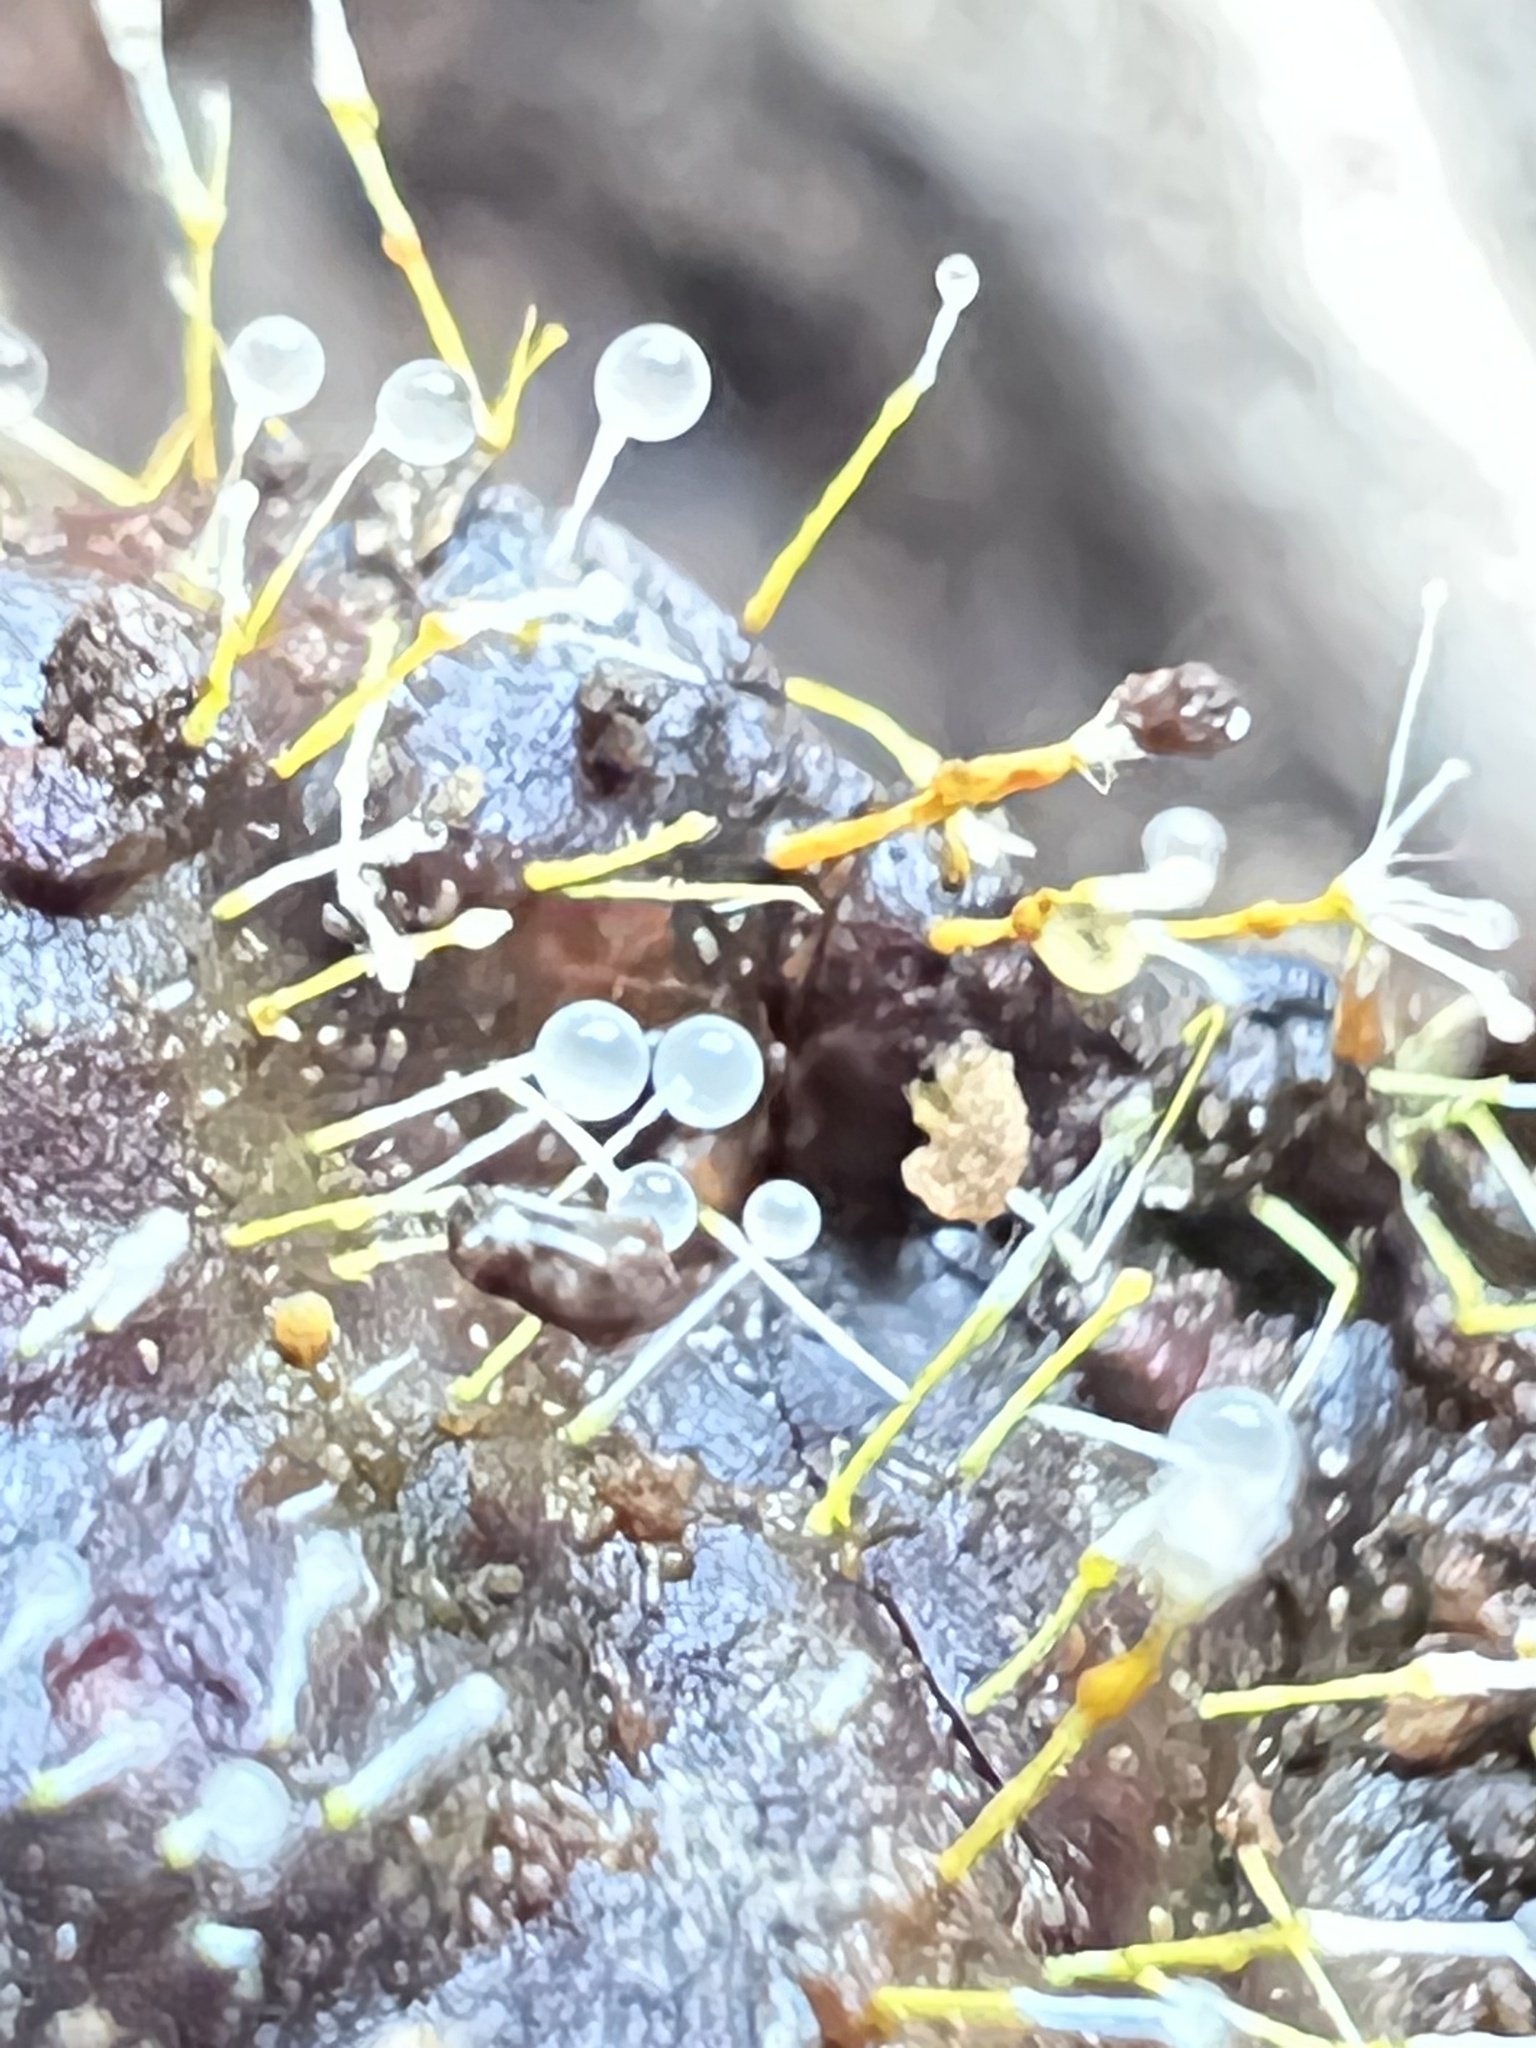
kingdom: Fungi
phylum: Ascomycota
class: Sordariomycetes
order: Hypocreales
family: Hypocreaceae
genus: Sphaerostilbella
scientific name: Sphaerostilbella aurifila
